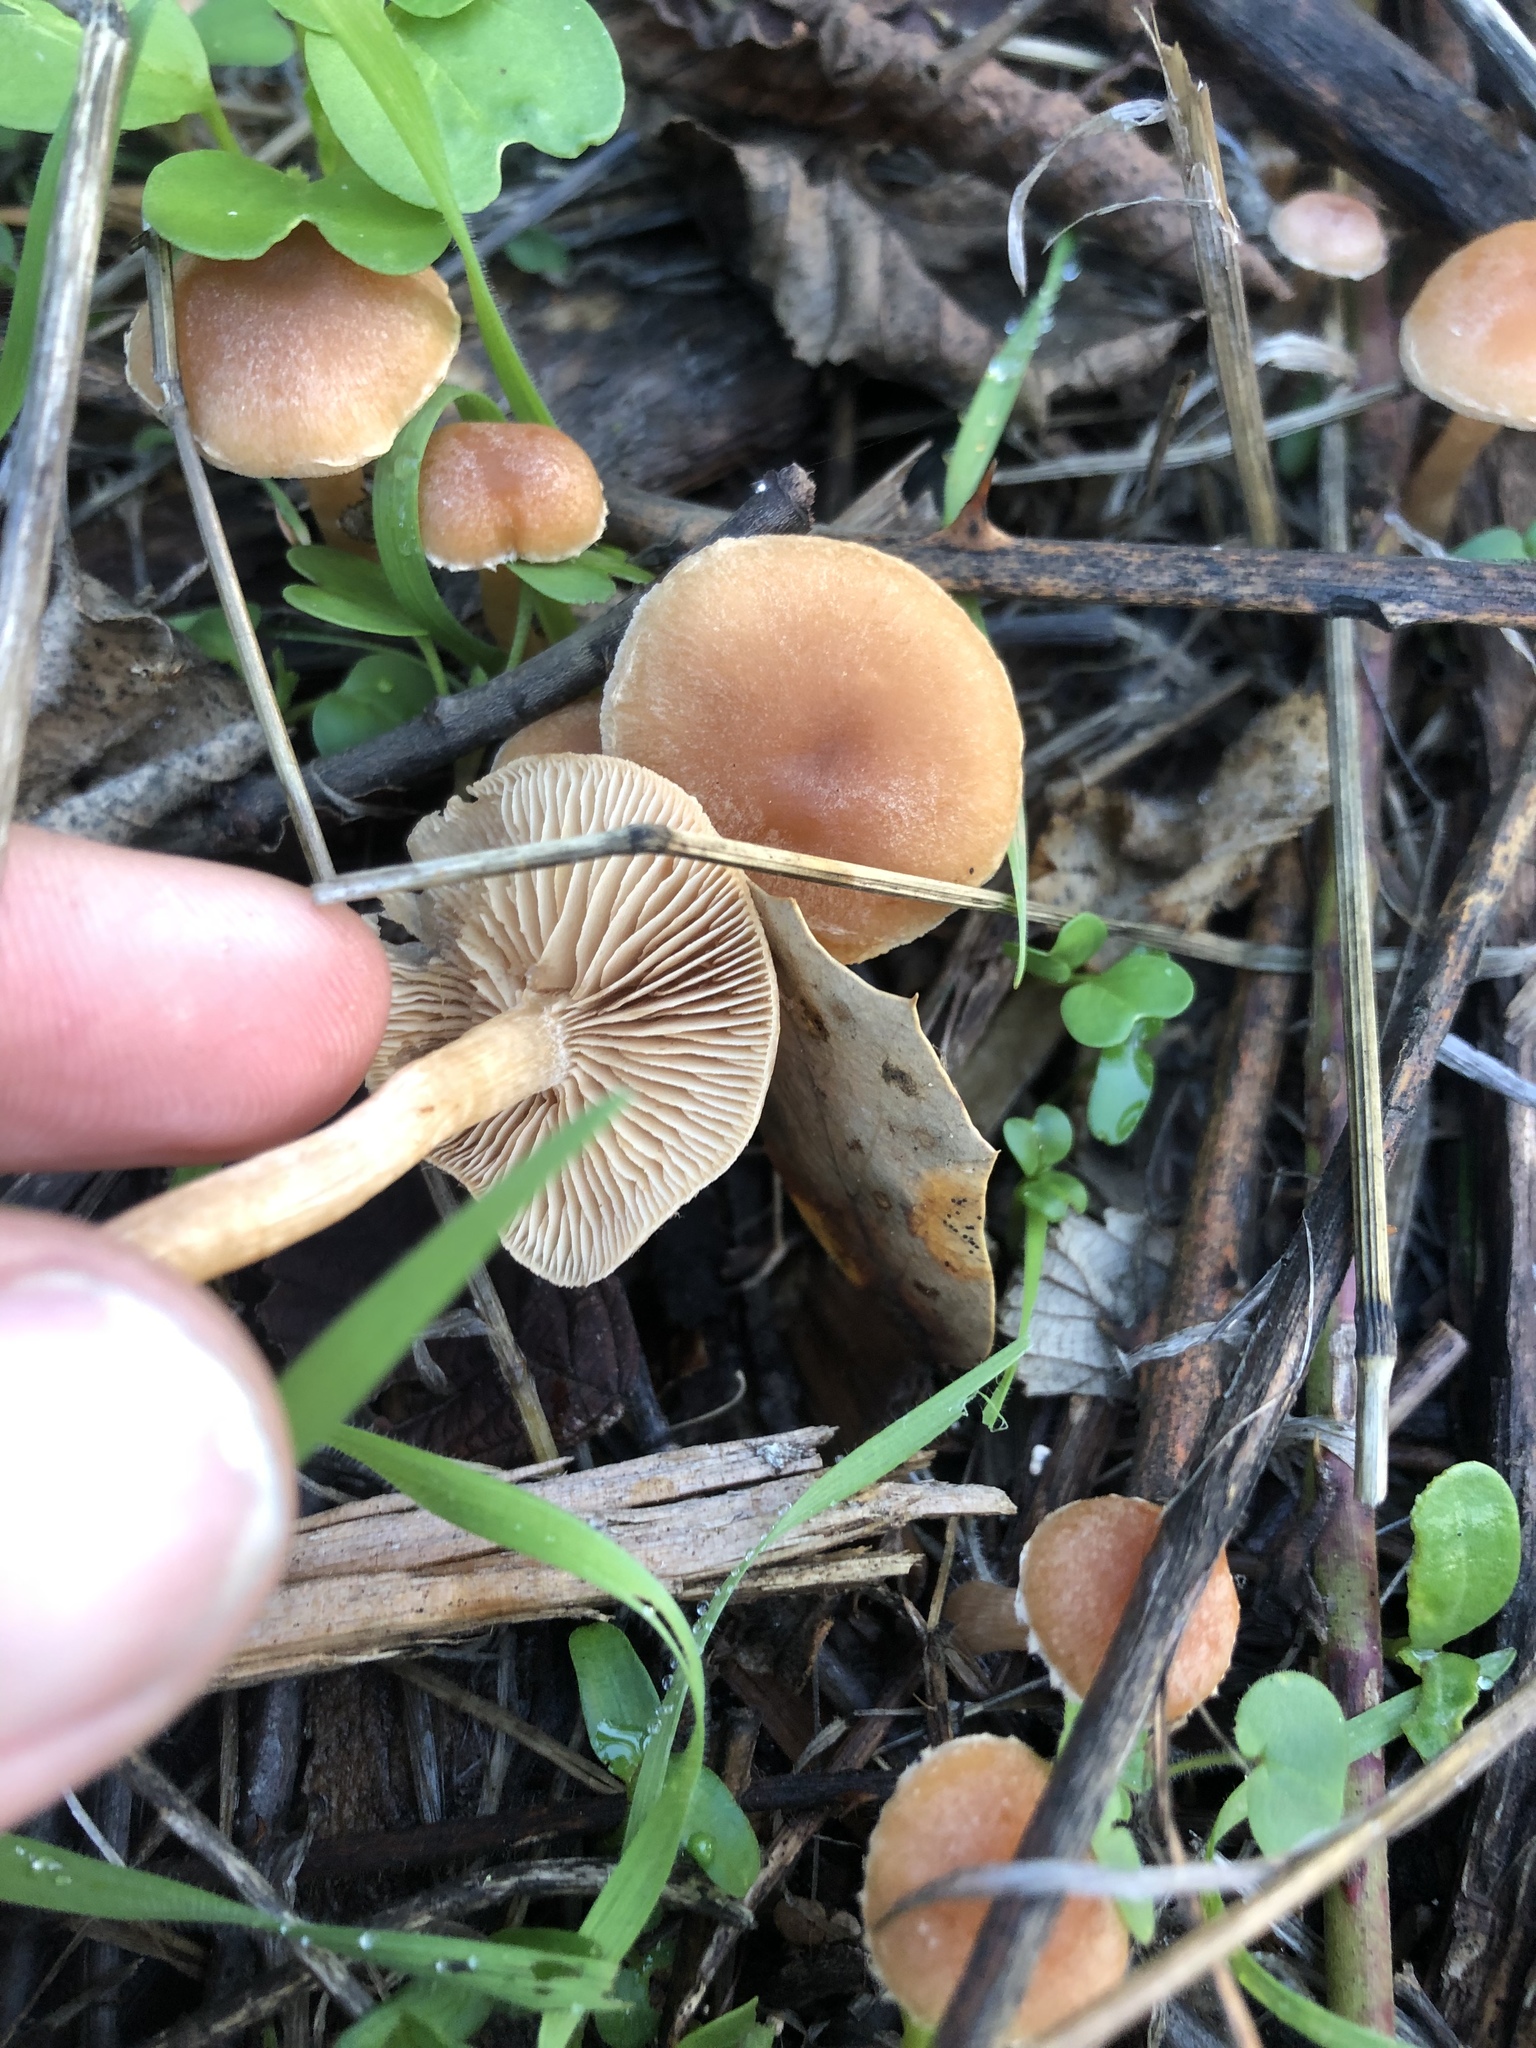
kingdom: Fungi
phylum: Basidiomycota
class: Agaricomycetes
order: Agaricales
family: Tubariaceae
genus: Tubaria
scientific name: Tubaria furfuracea
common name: Scurfy twiglet
